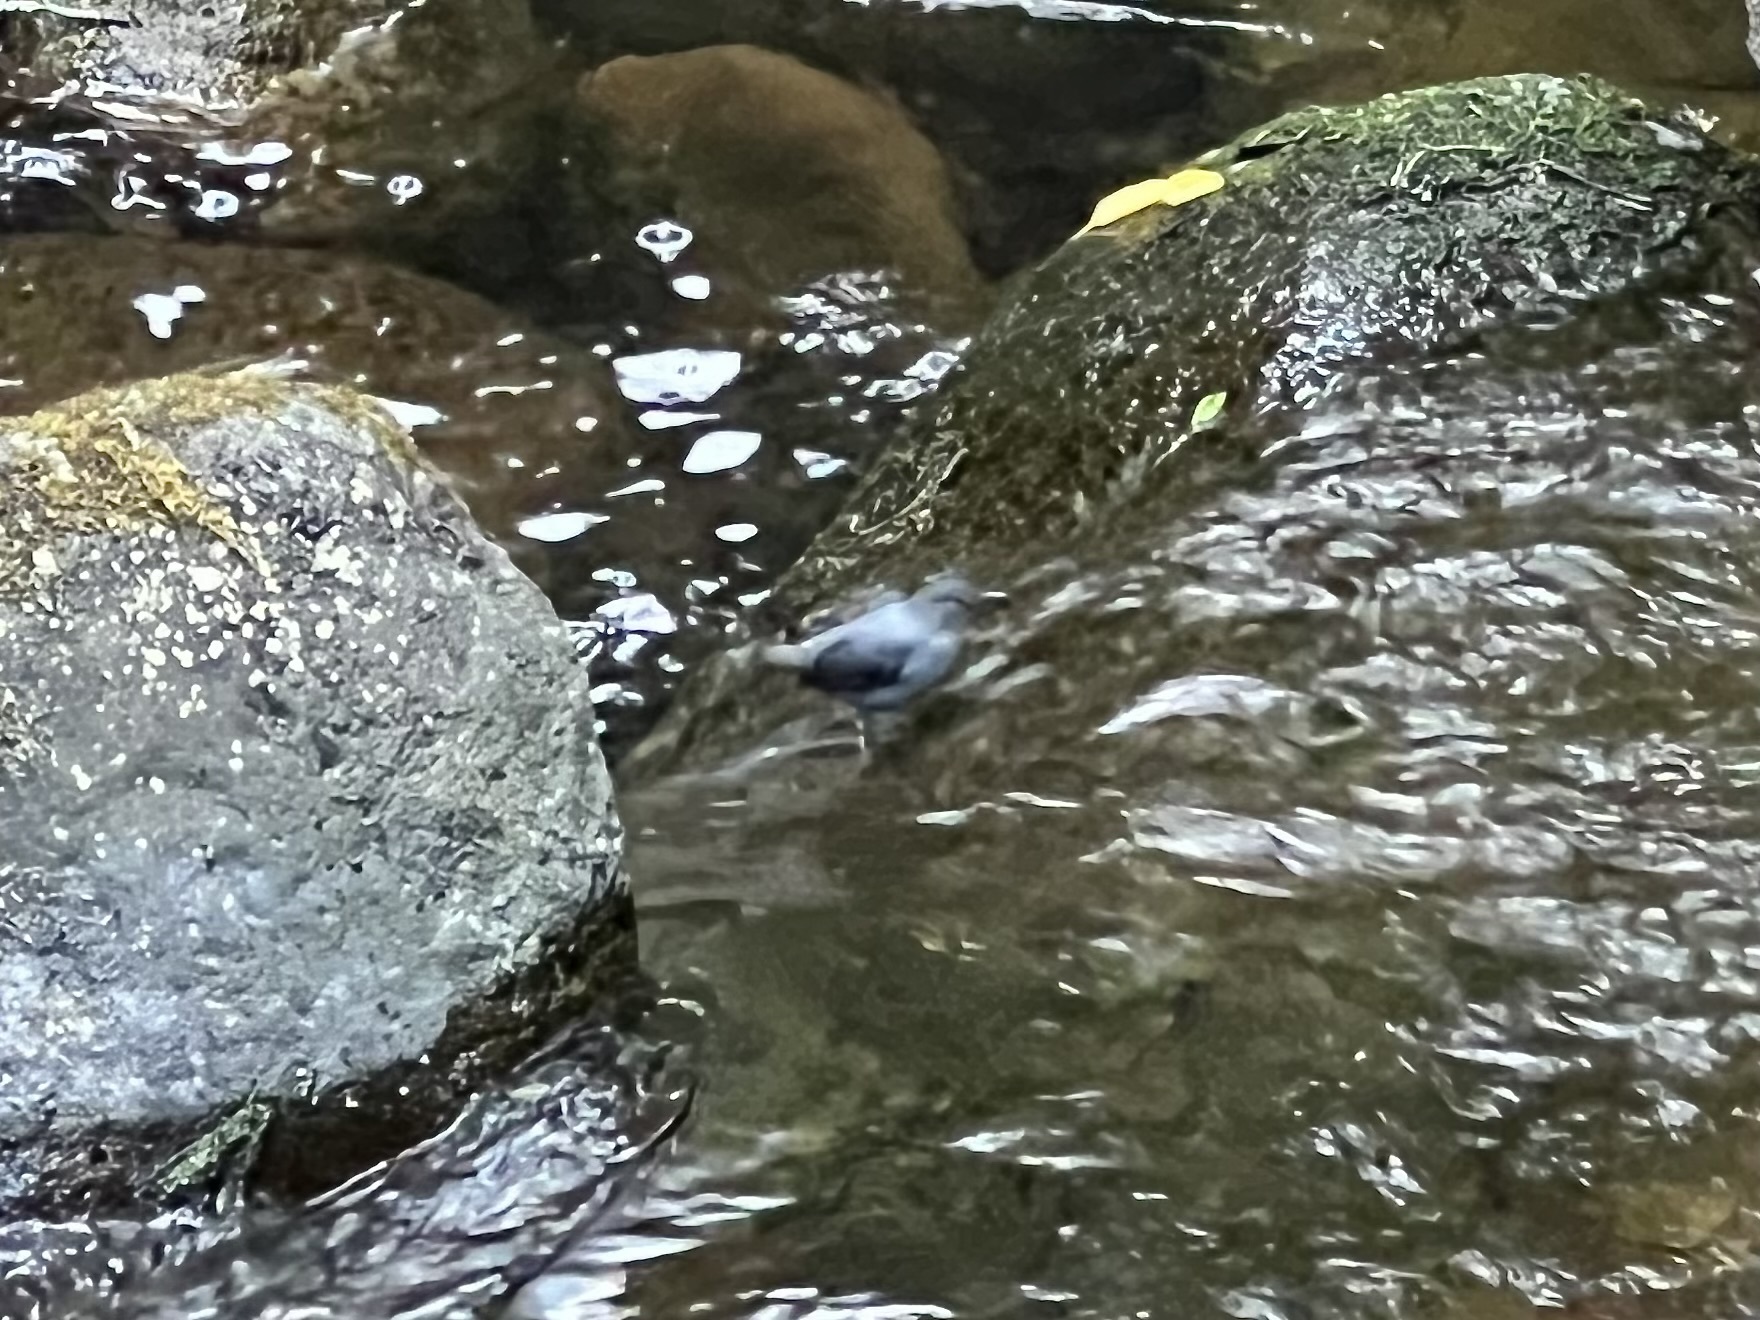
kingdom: Animalia
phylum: Chordata
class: Aves
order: Passeriformes
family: Cinclidae
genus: Cinclus
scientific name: Cinclus mexicanus
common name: American dipper
